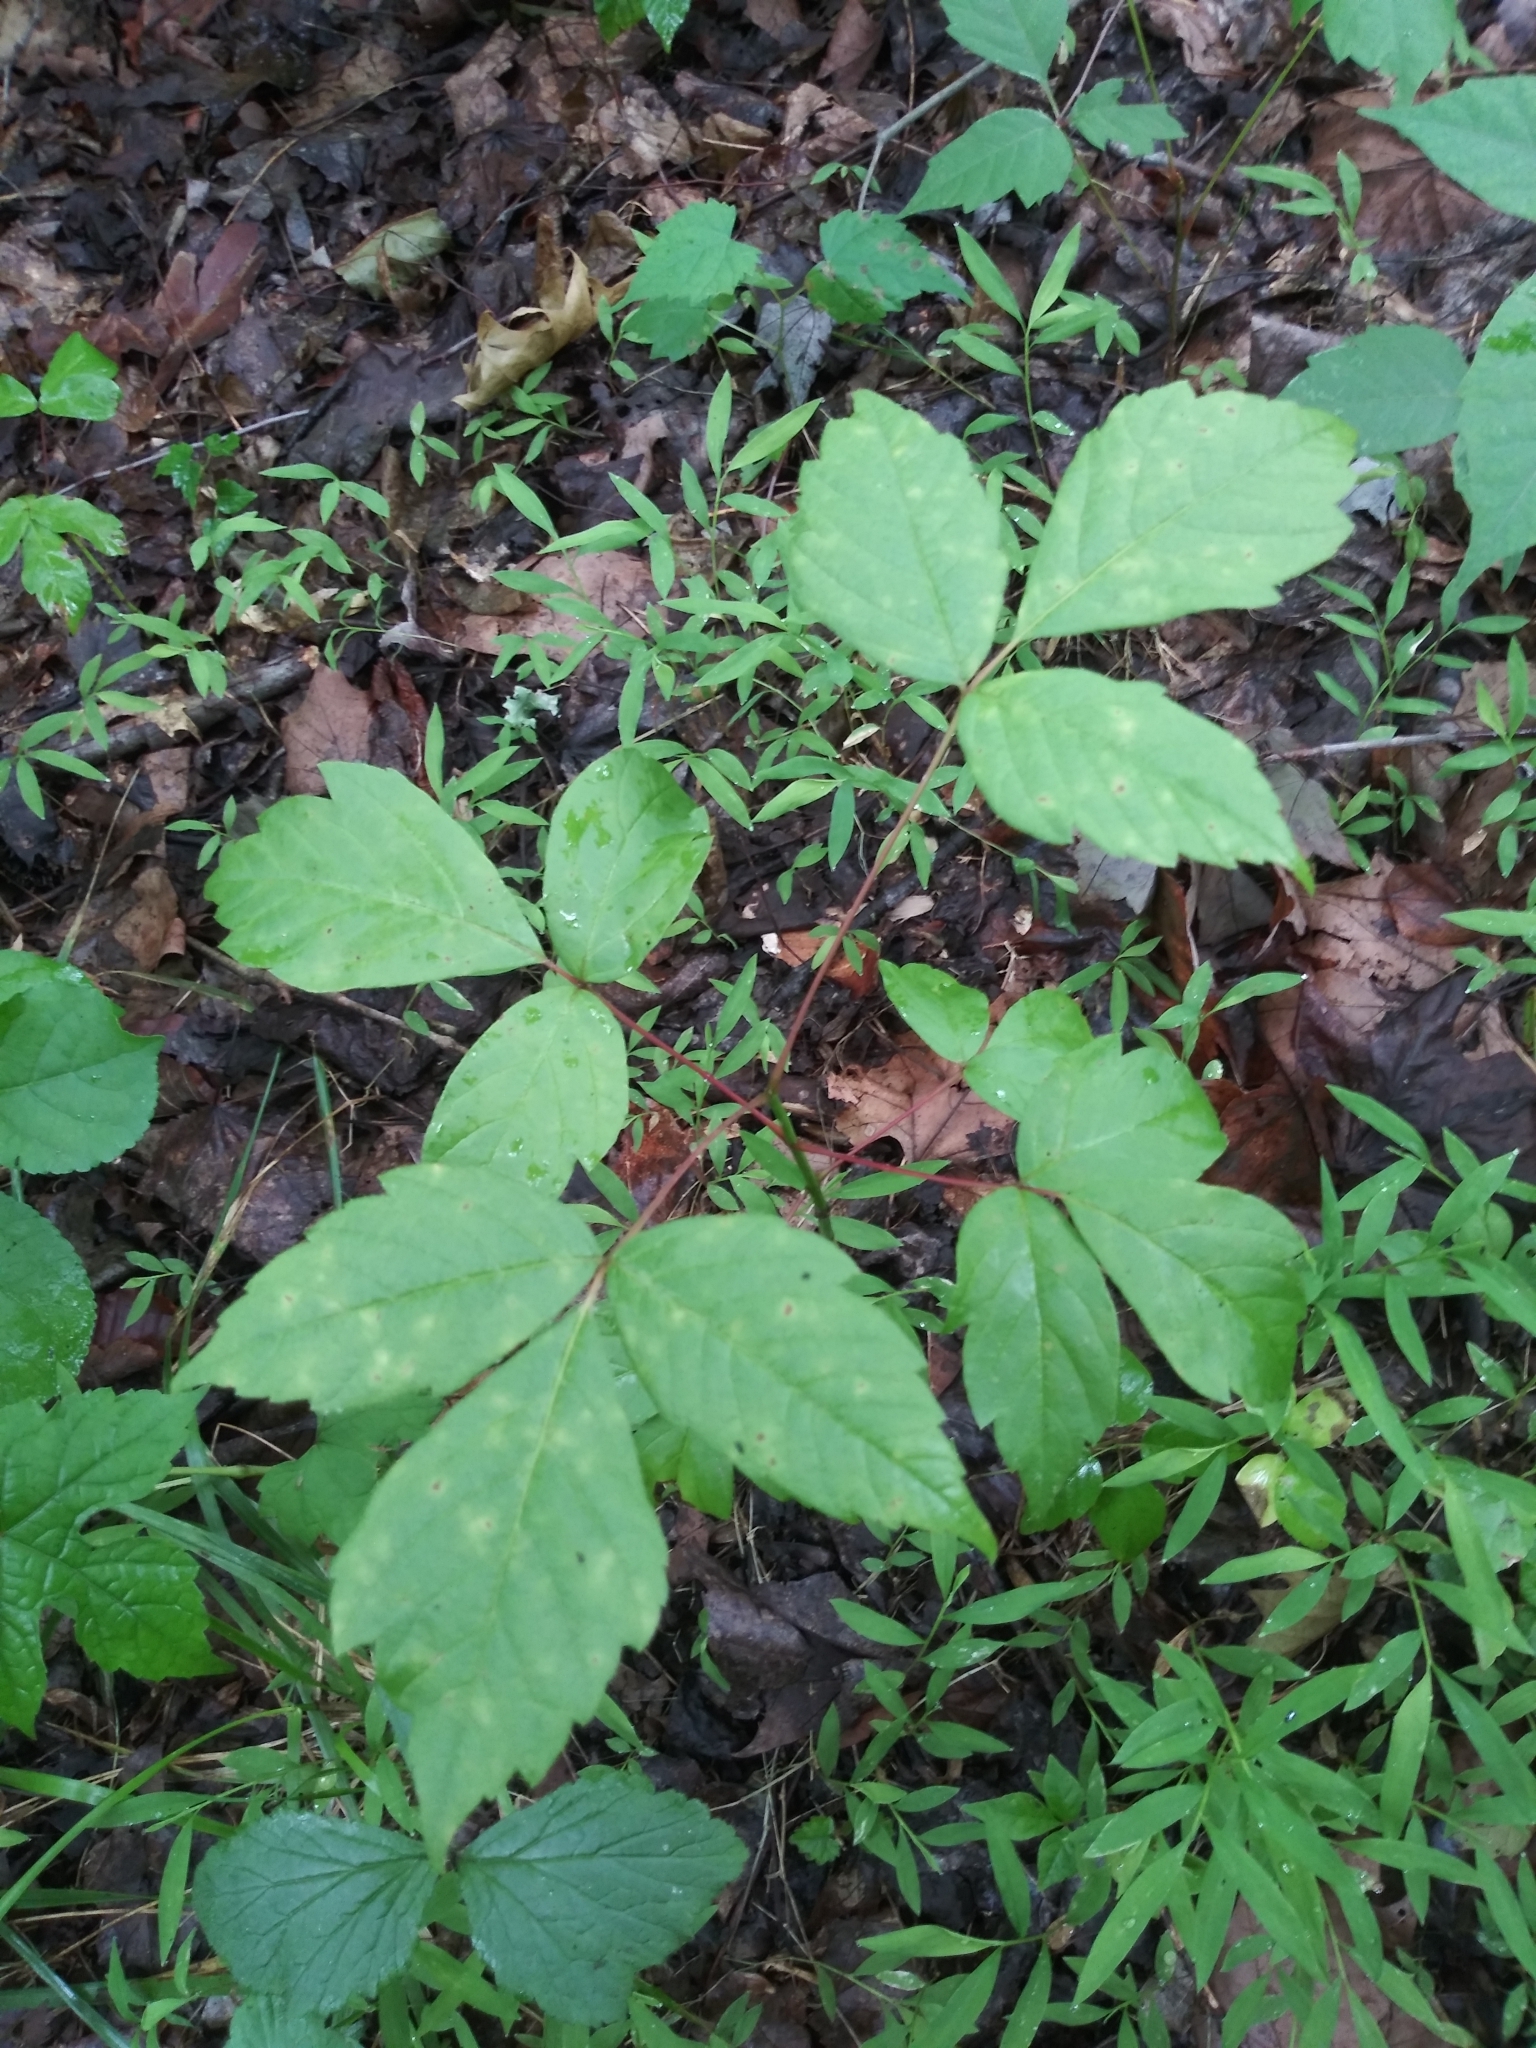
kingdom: Plantae
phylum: Tracheophyta
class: Magnoliopsida
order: Sapindales
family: Sapindaceae
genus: Acer
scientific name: Acer negundo
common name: Ashleaf maple
